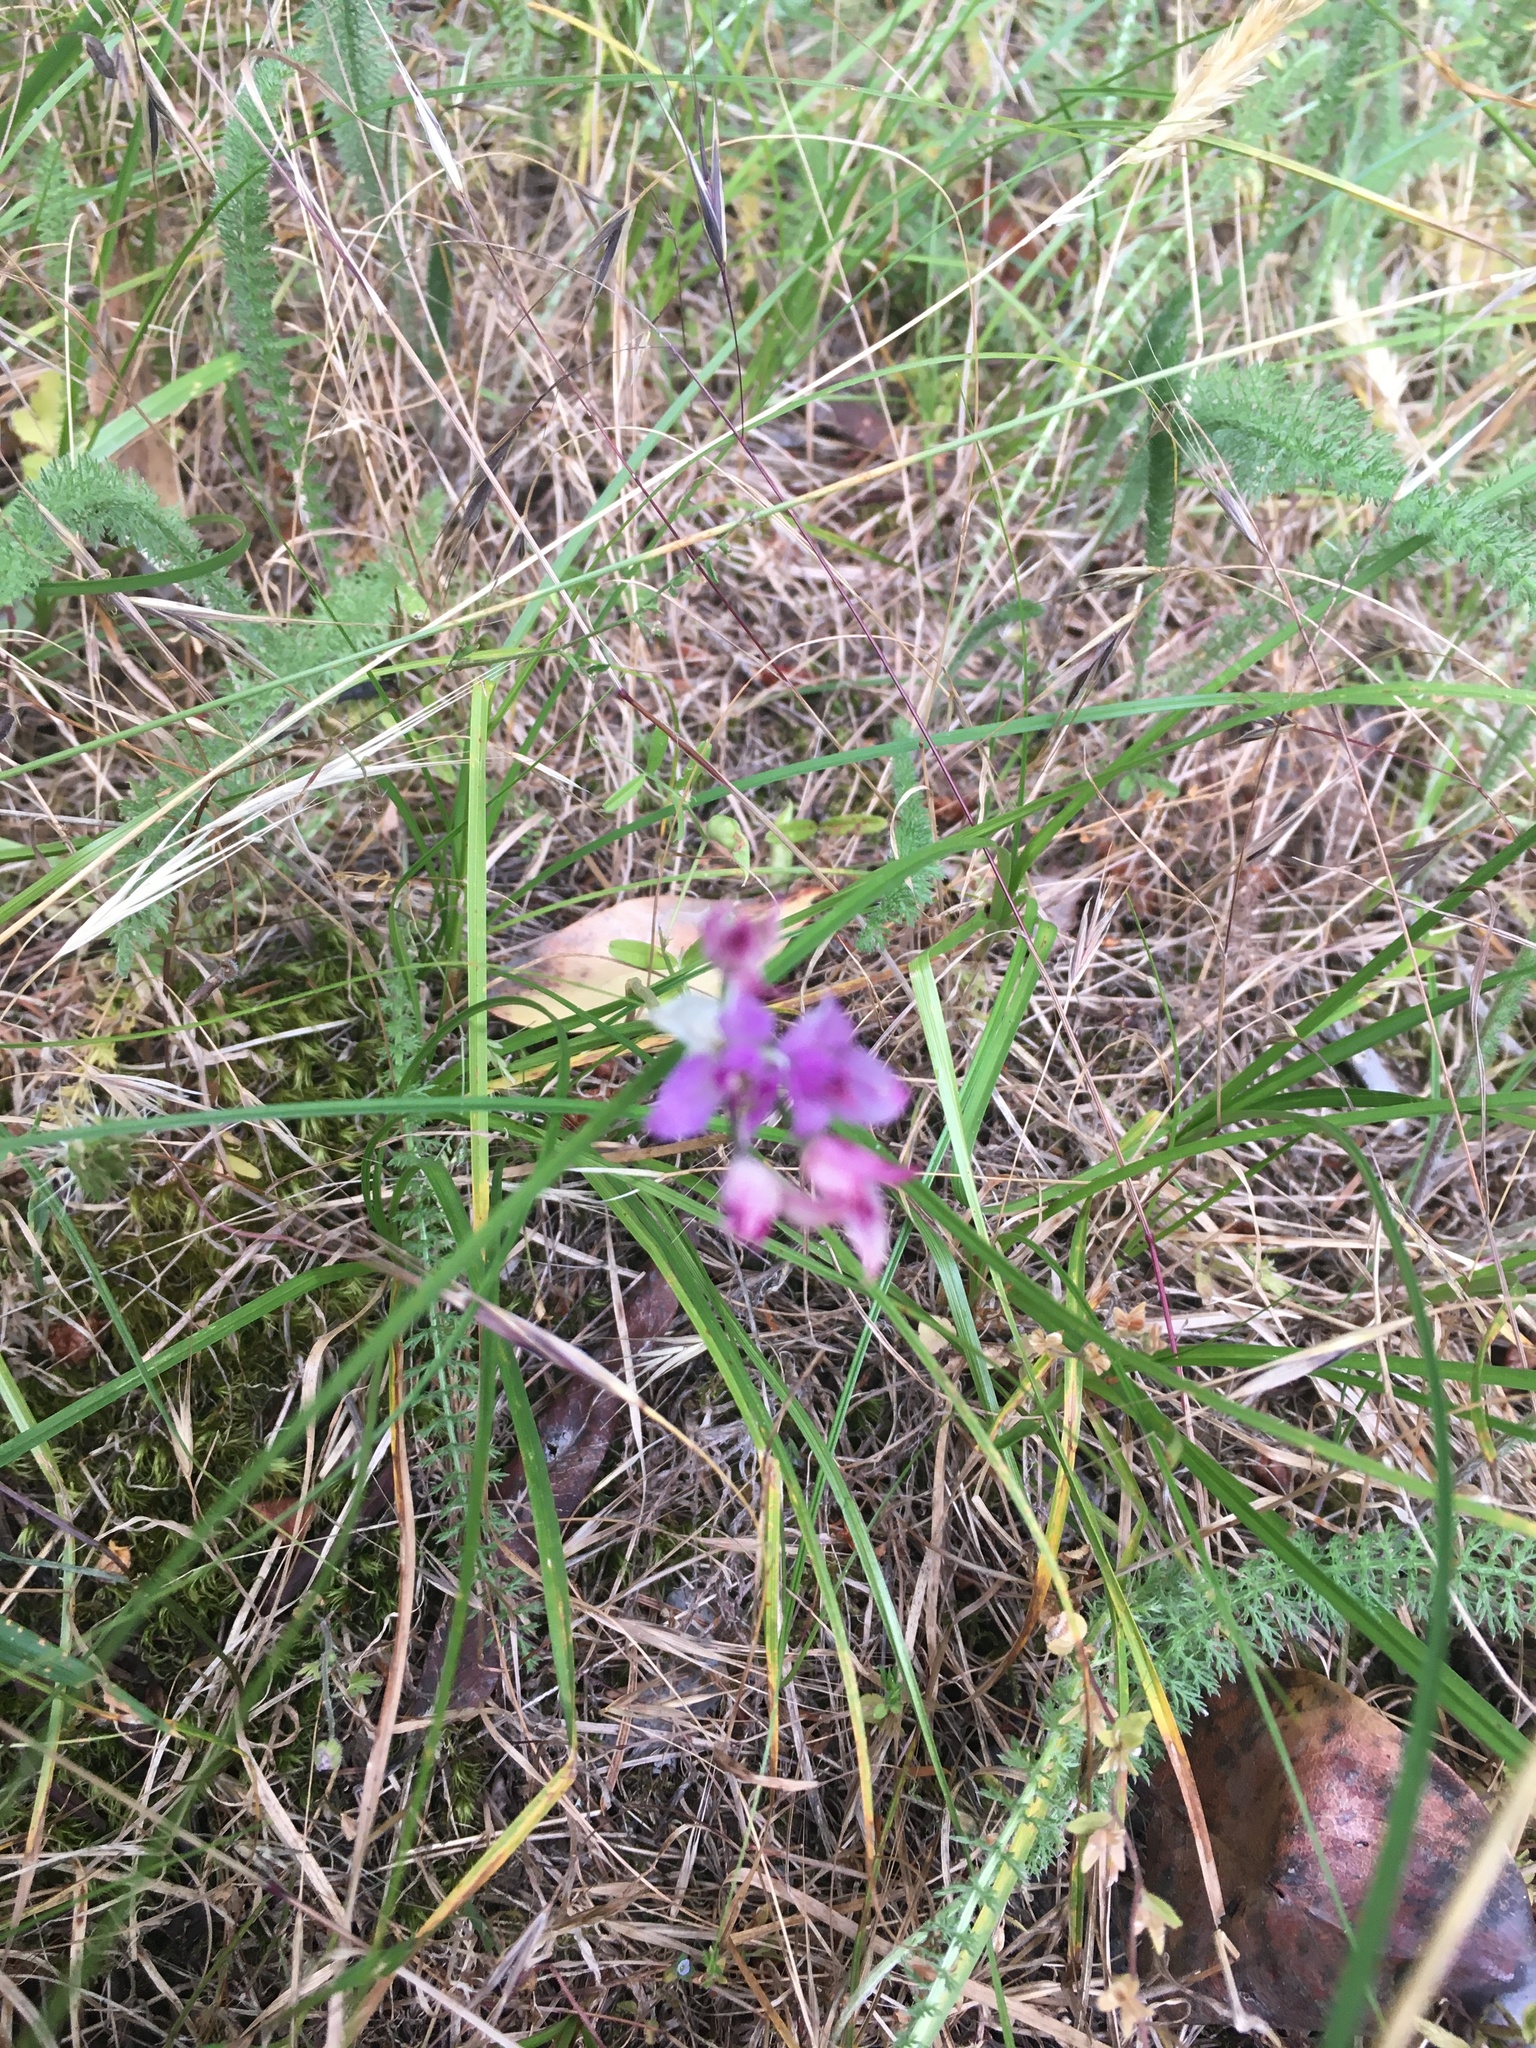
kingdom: Plantae
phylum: Tracheophyta
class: Liliopsida
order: Asparagales
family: Amaryllidaceae
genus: Allium
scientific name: Allium acuminatum
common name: Hooker's onion
